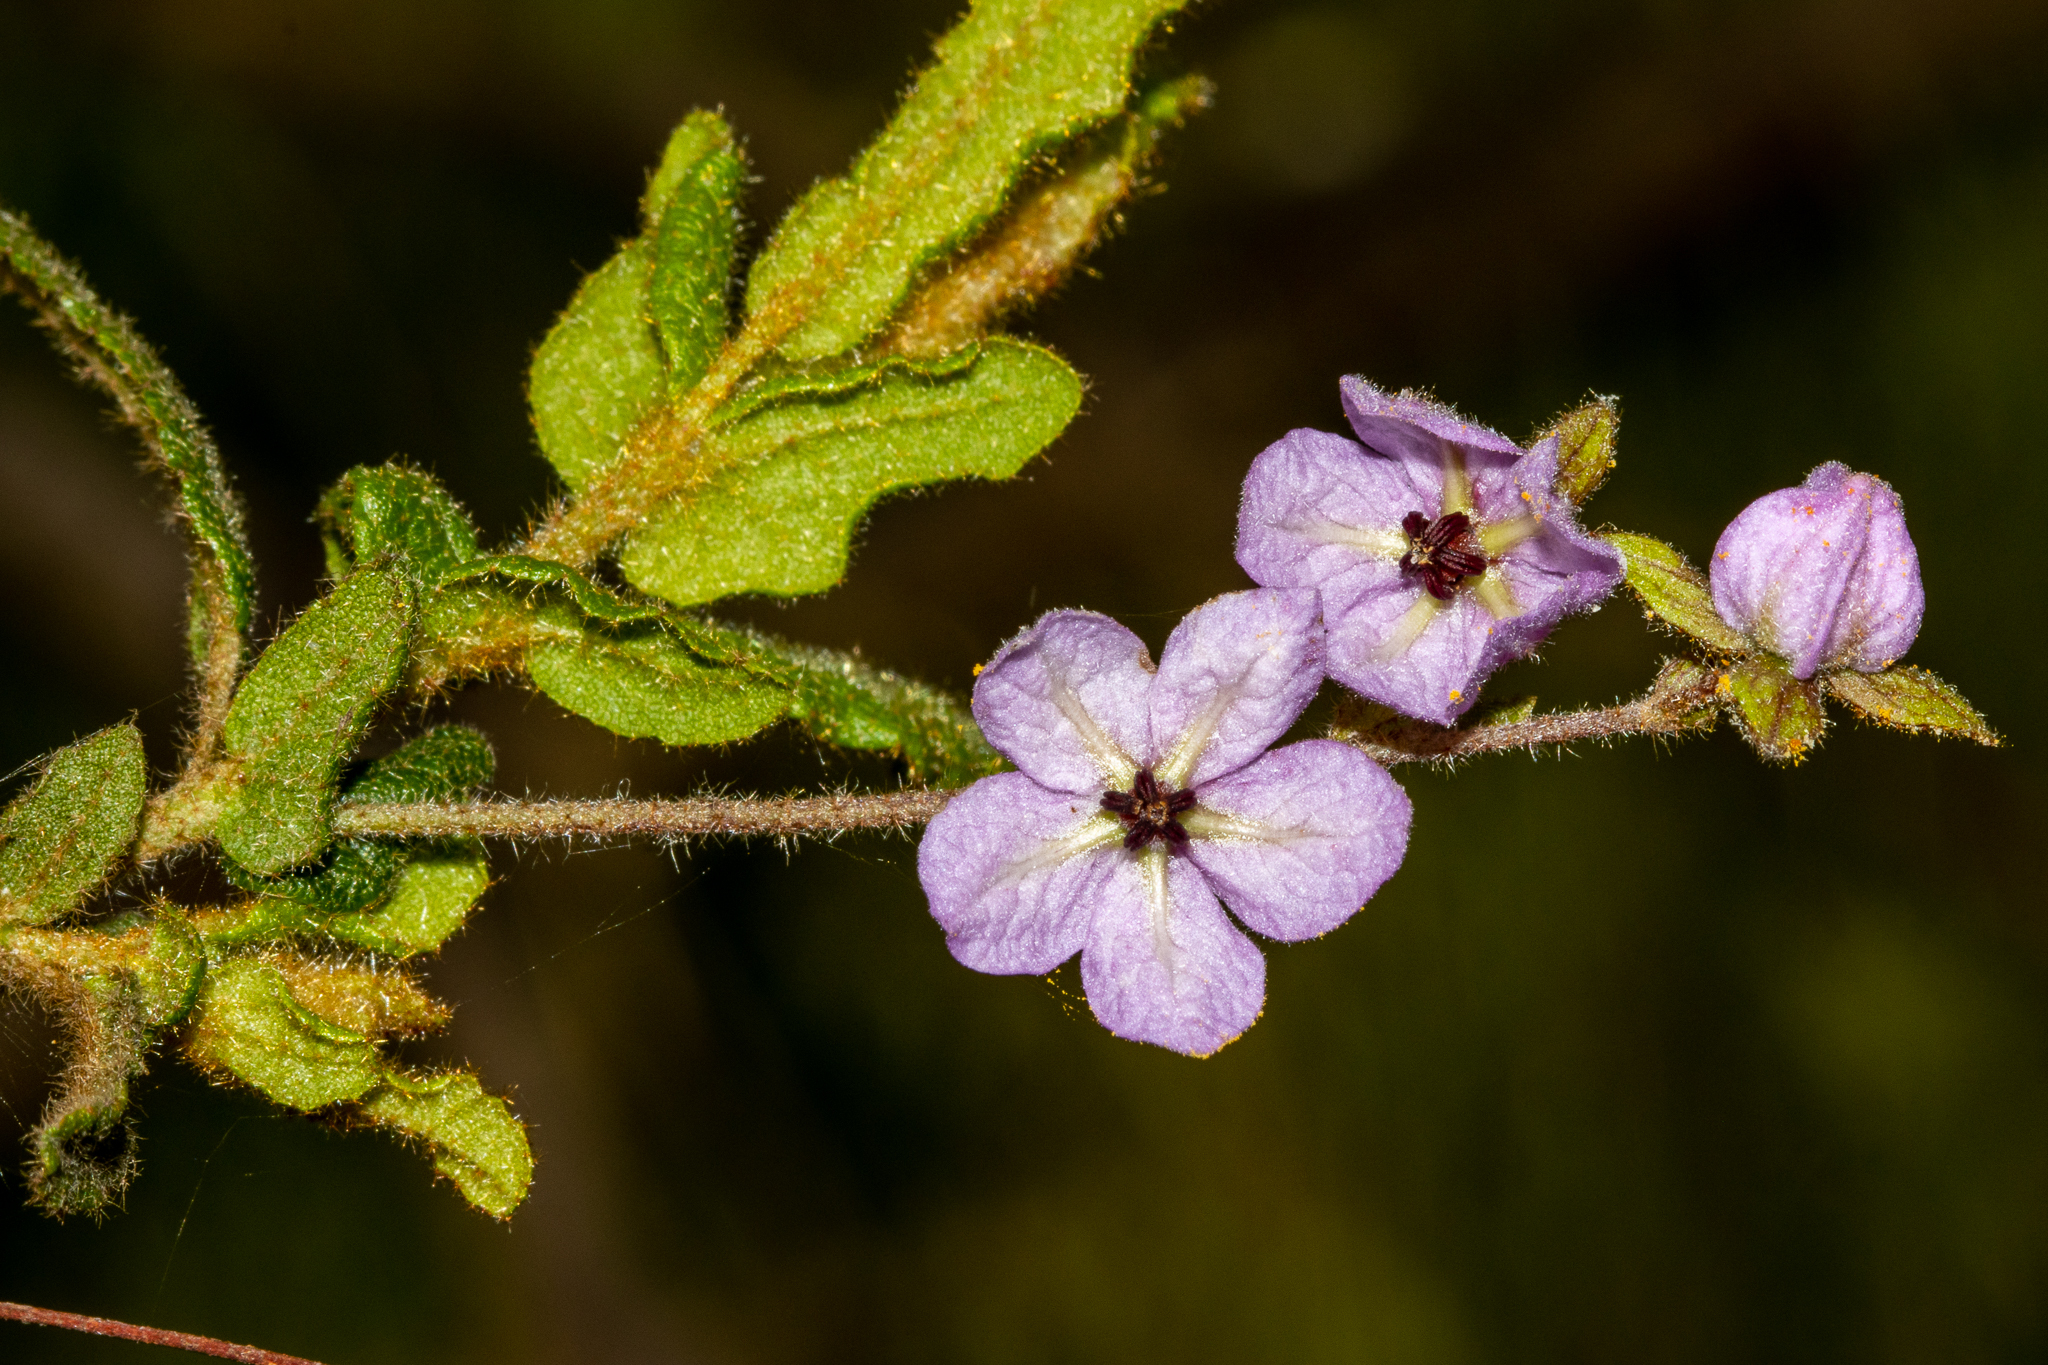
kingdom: Plantae
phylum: Tracheophyta
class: Magnoliopsida
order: Malvales
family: Malvaceae
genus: Thomasia
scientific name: Thomasia petalocalyx
